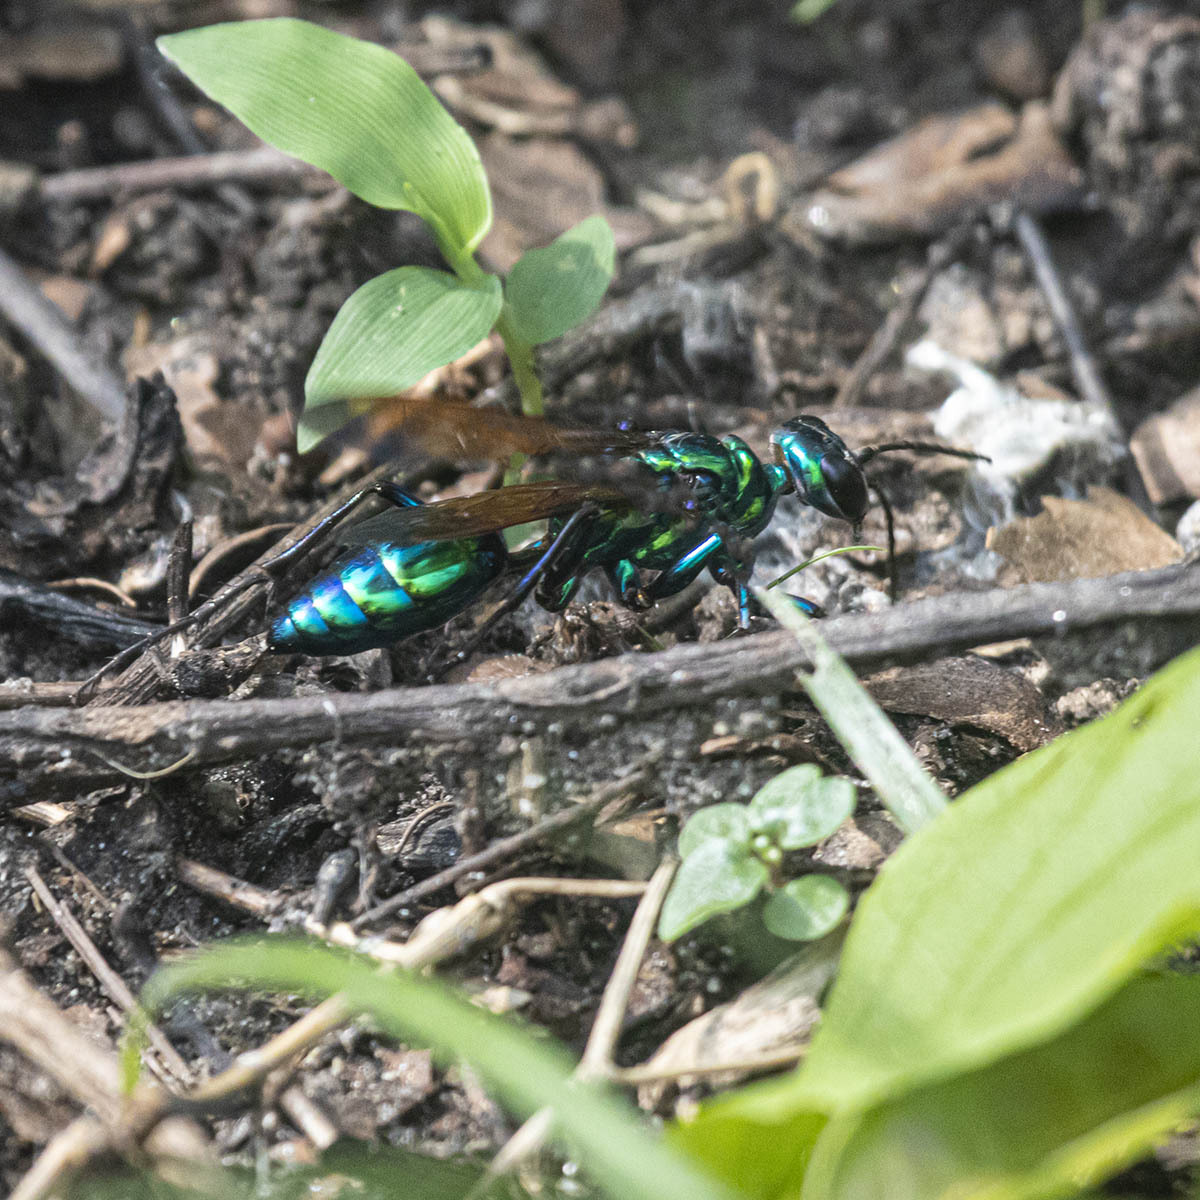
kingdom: Animalia
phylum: Arthropoda
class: Insecta
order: Hymenoptera
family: Sphecidae
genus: Chlorion
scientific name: Chlorion lobatum
